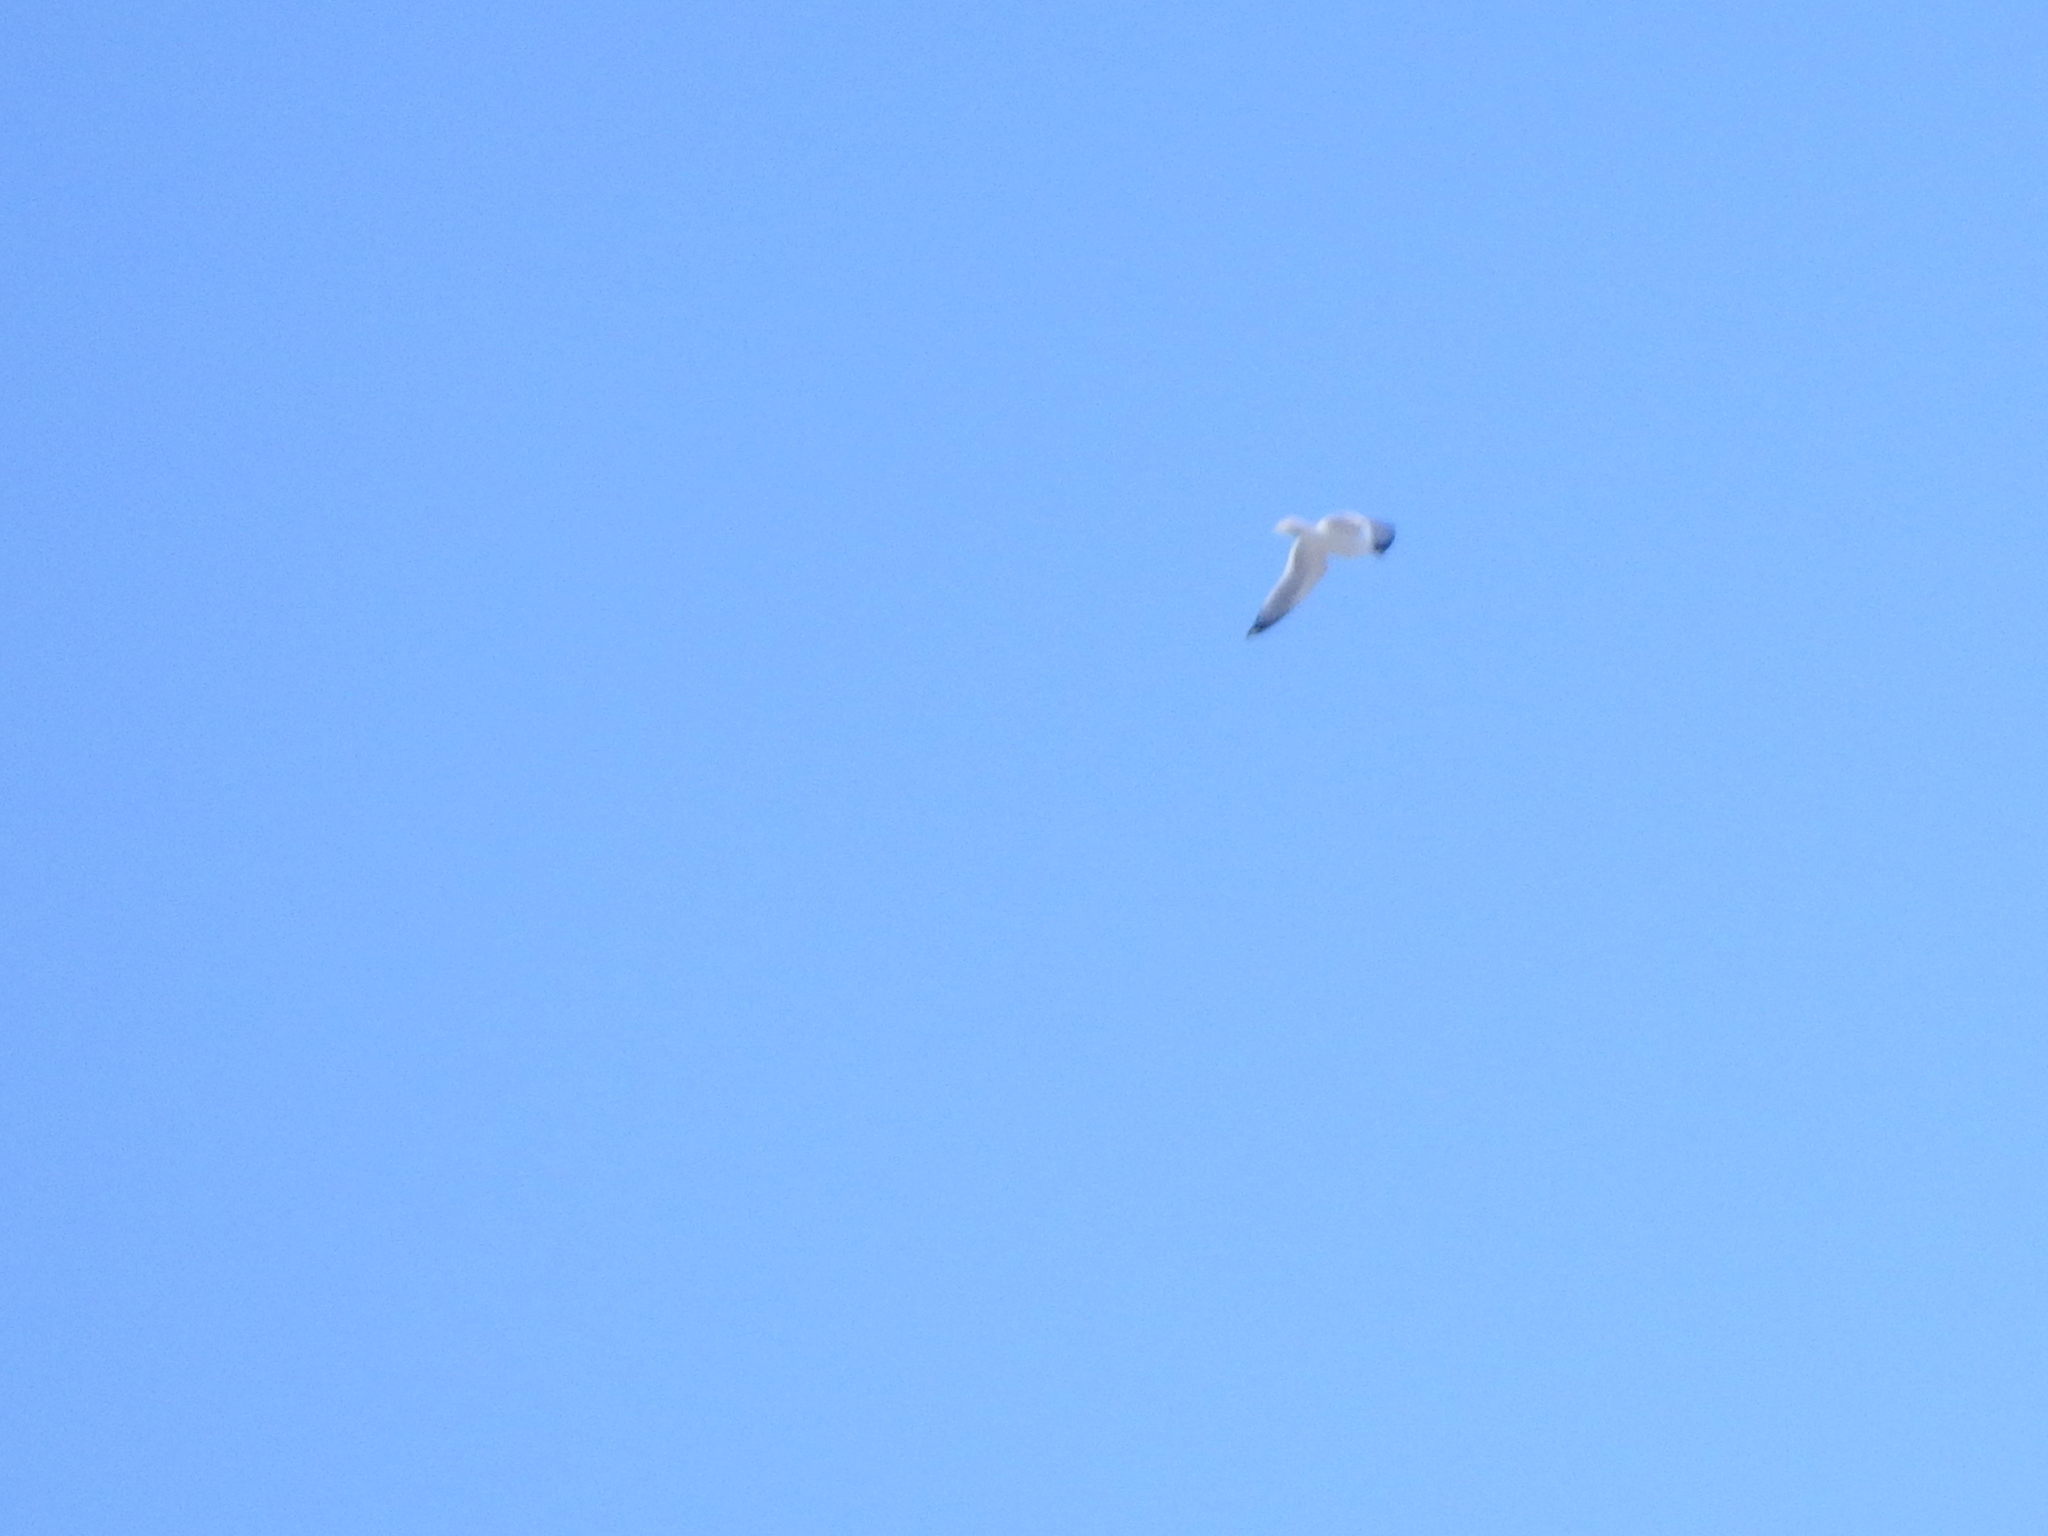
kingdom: Animalia
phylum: Chordata
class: Aves
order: Charadriiformes
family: Laridae
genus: Larus
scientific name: Larus
